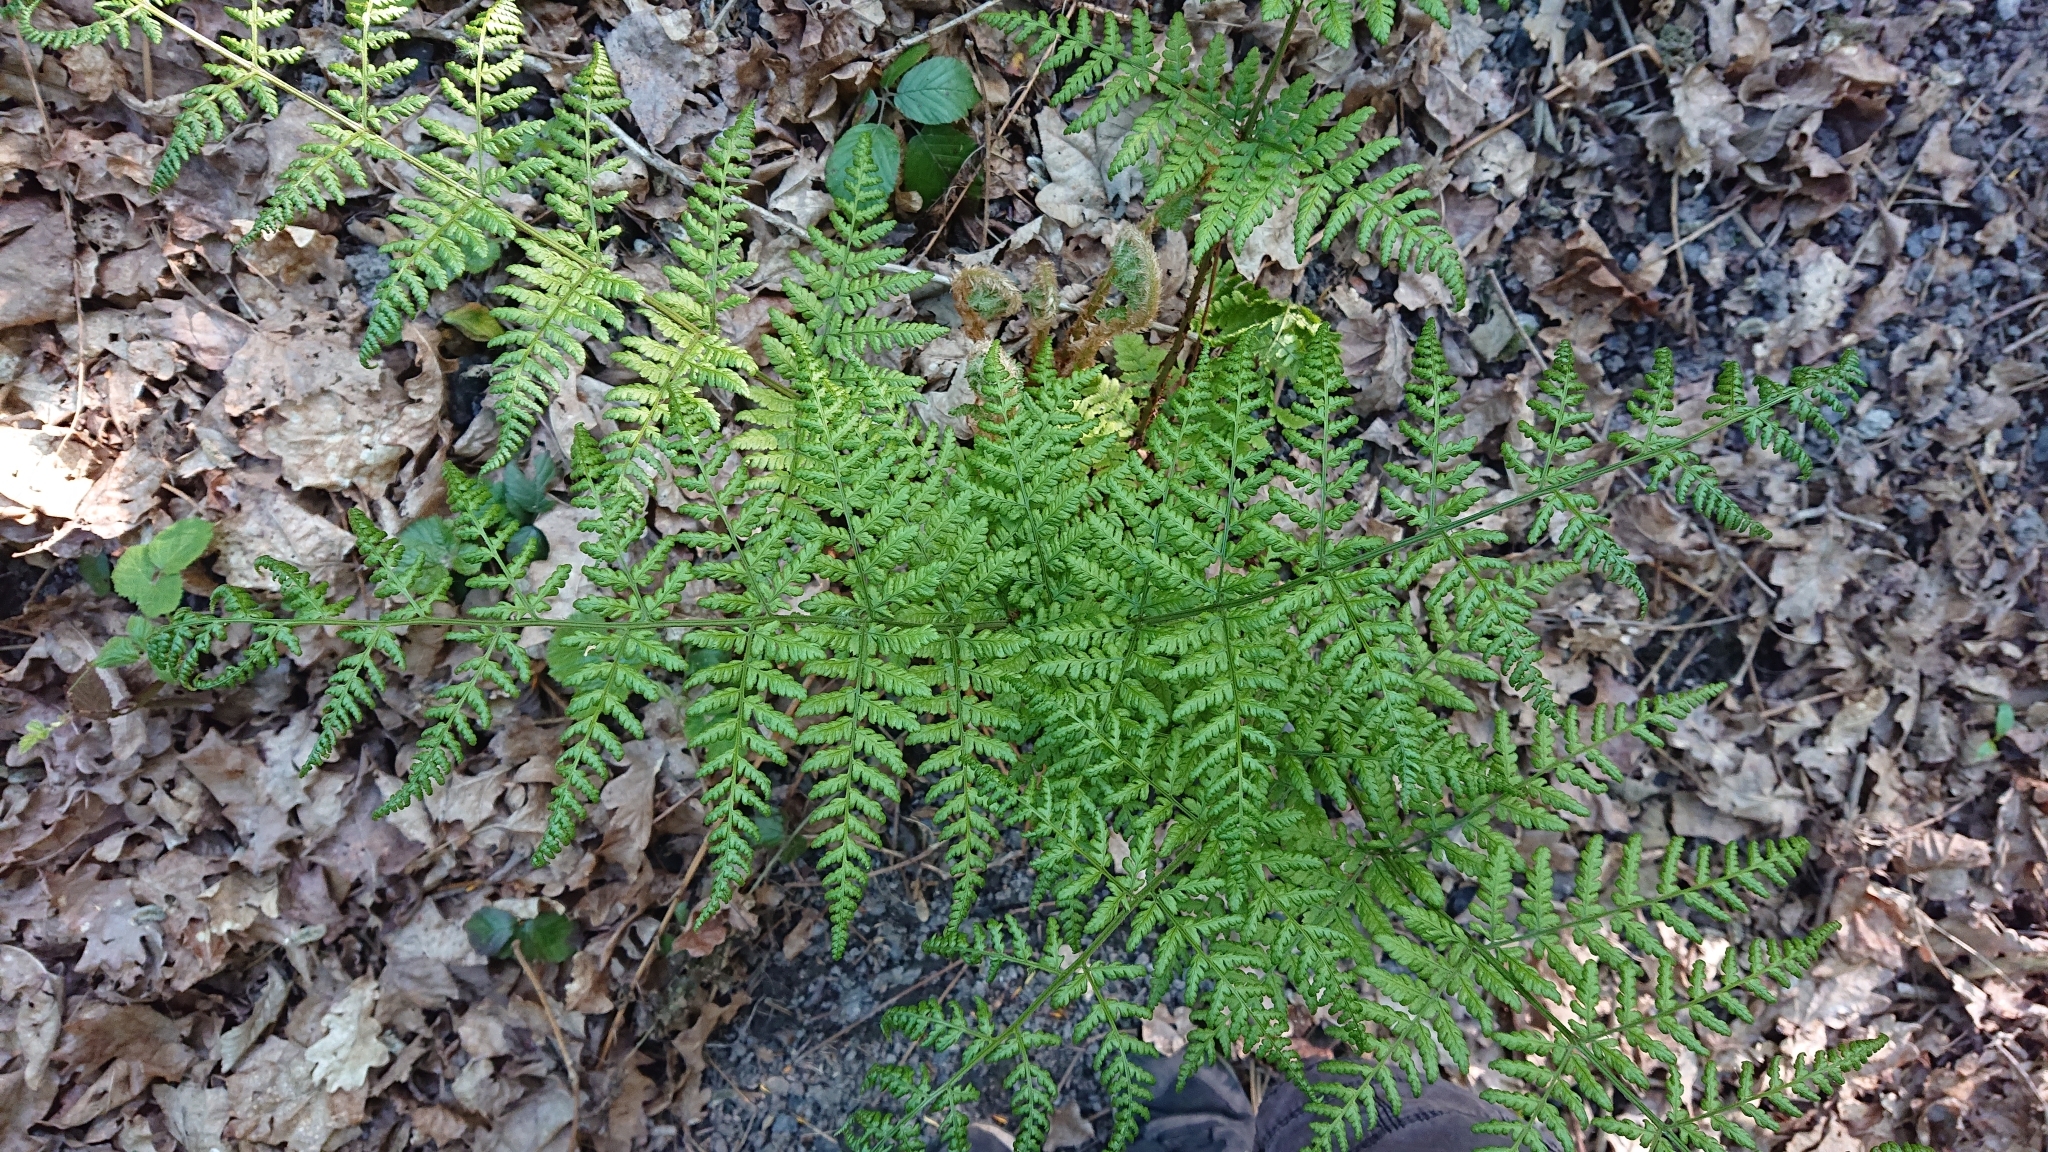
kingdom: Plantae
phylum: Tracheophyta
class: Polypodiopsida
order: Polypodiales
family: Dryopteridaceae
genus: Dryopteris
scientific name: Dryopteris dilatata
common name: Broad buckler-fern
